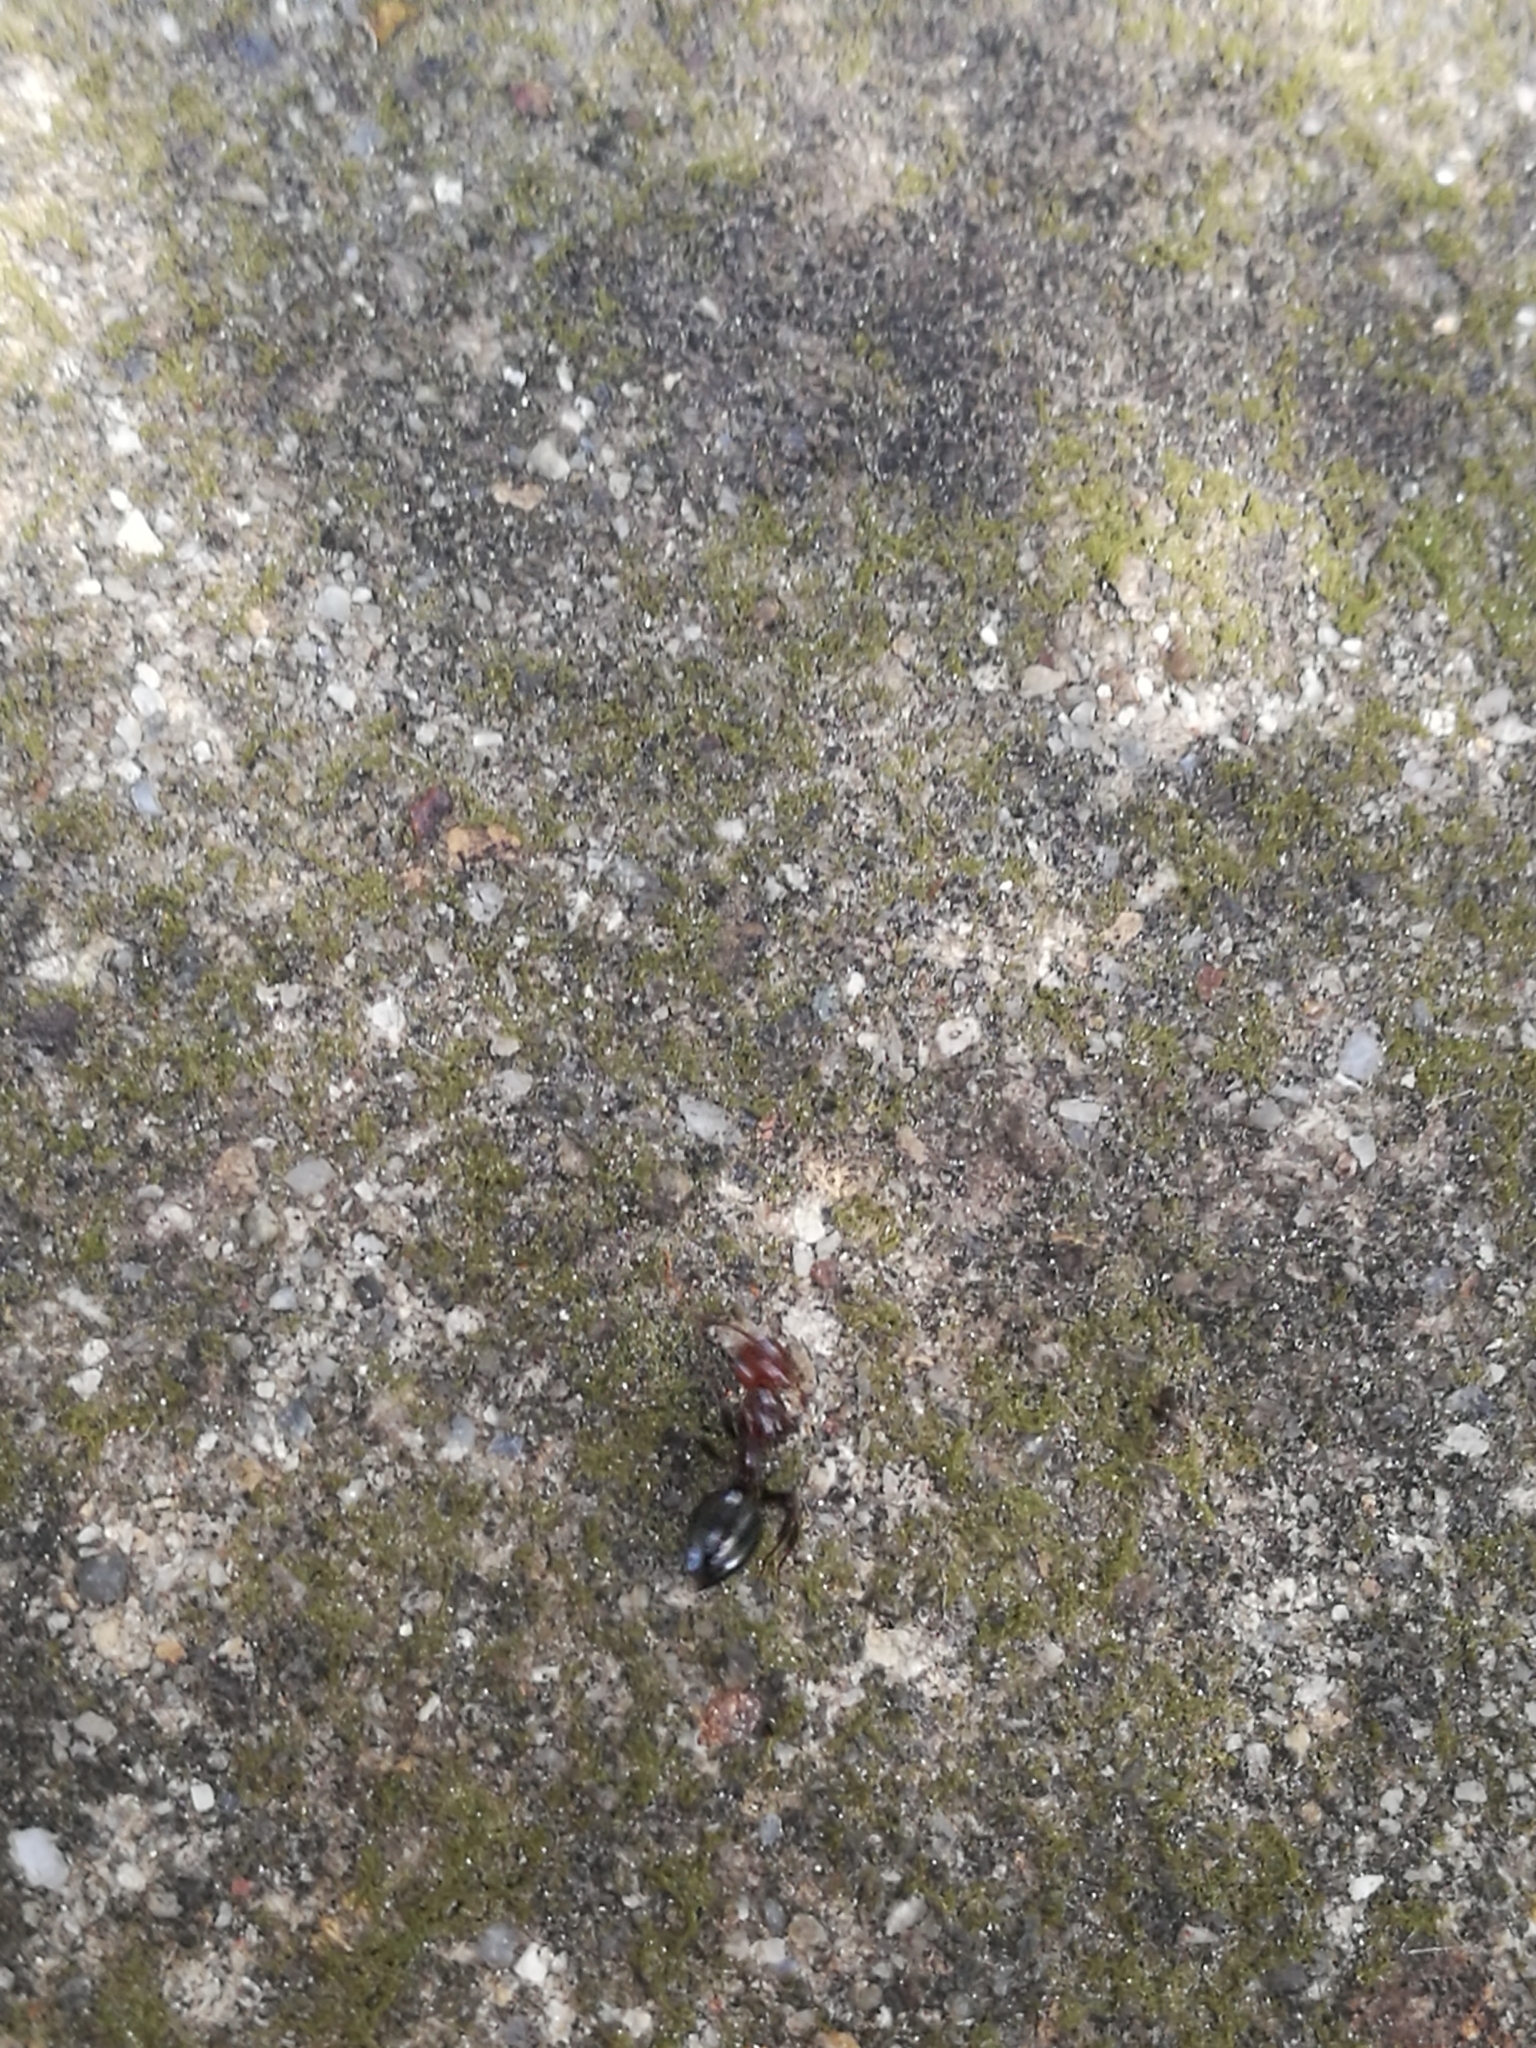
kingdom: Animalia
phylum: Arthropoda
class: Insecta
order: Hymenoptera
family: Formicidae
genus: Camponotus
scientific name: Camponotus lateralis
